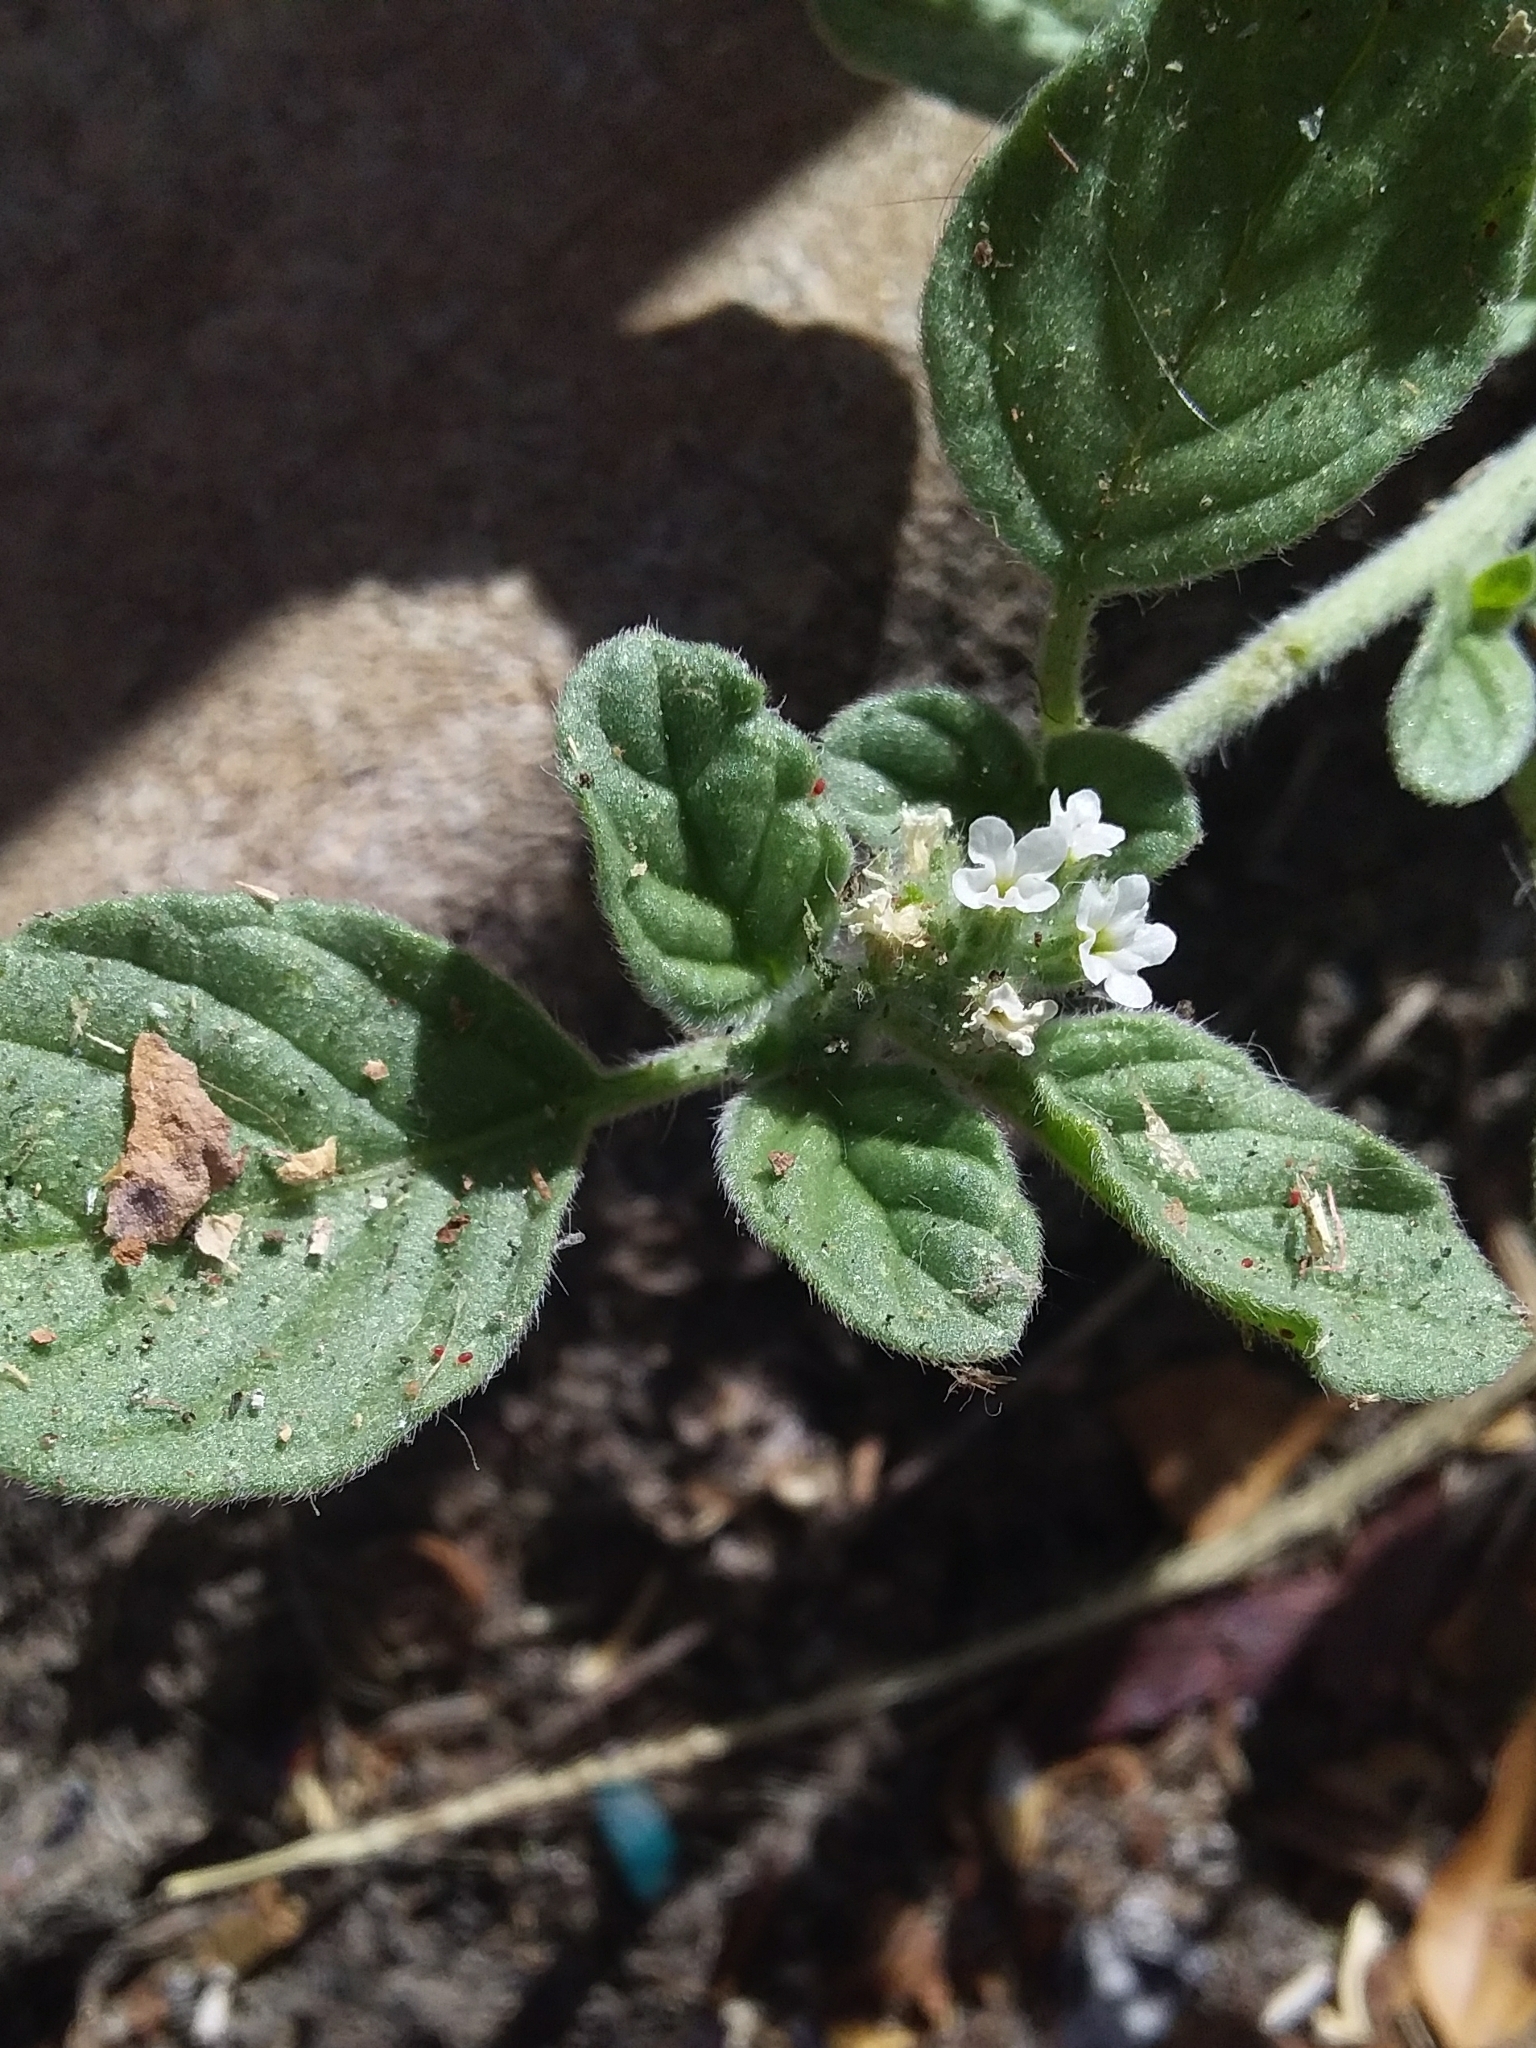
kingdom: Plantae
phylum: Tracheophyta
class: Magnoliopsida
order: Boraginales
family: Heliotropiaceae
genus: Heliotropium
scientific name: Heliotropium europaeum
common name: European heliotrope
